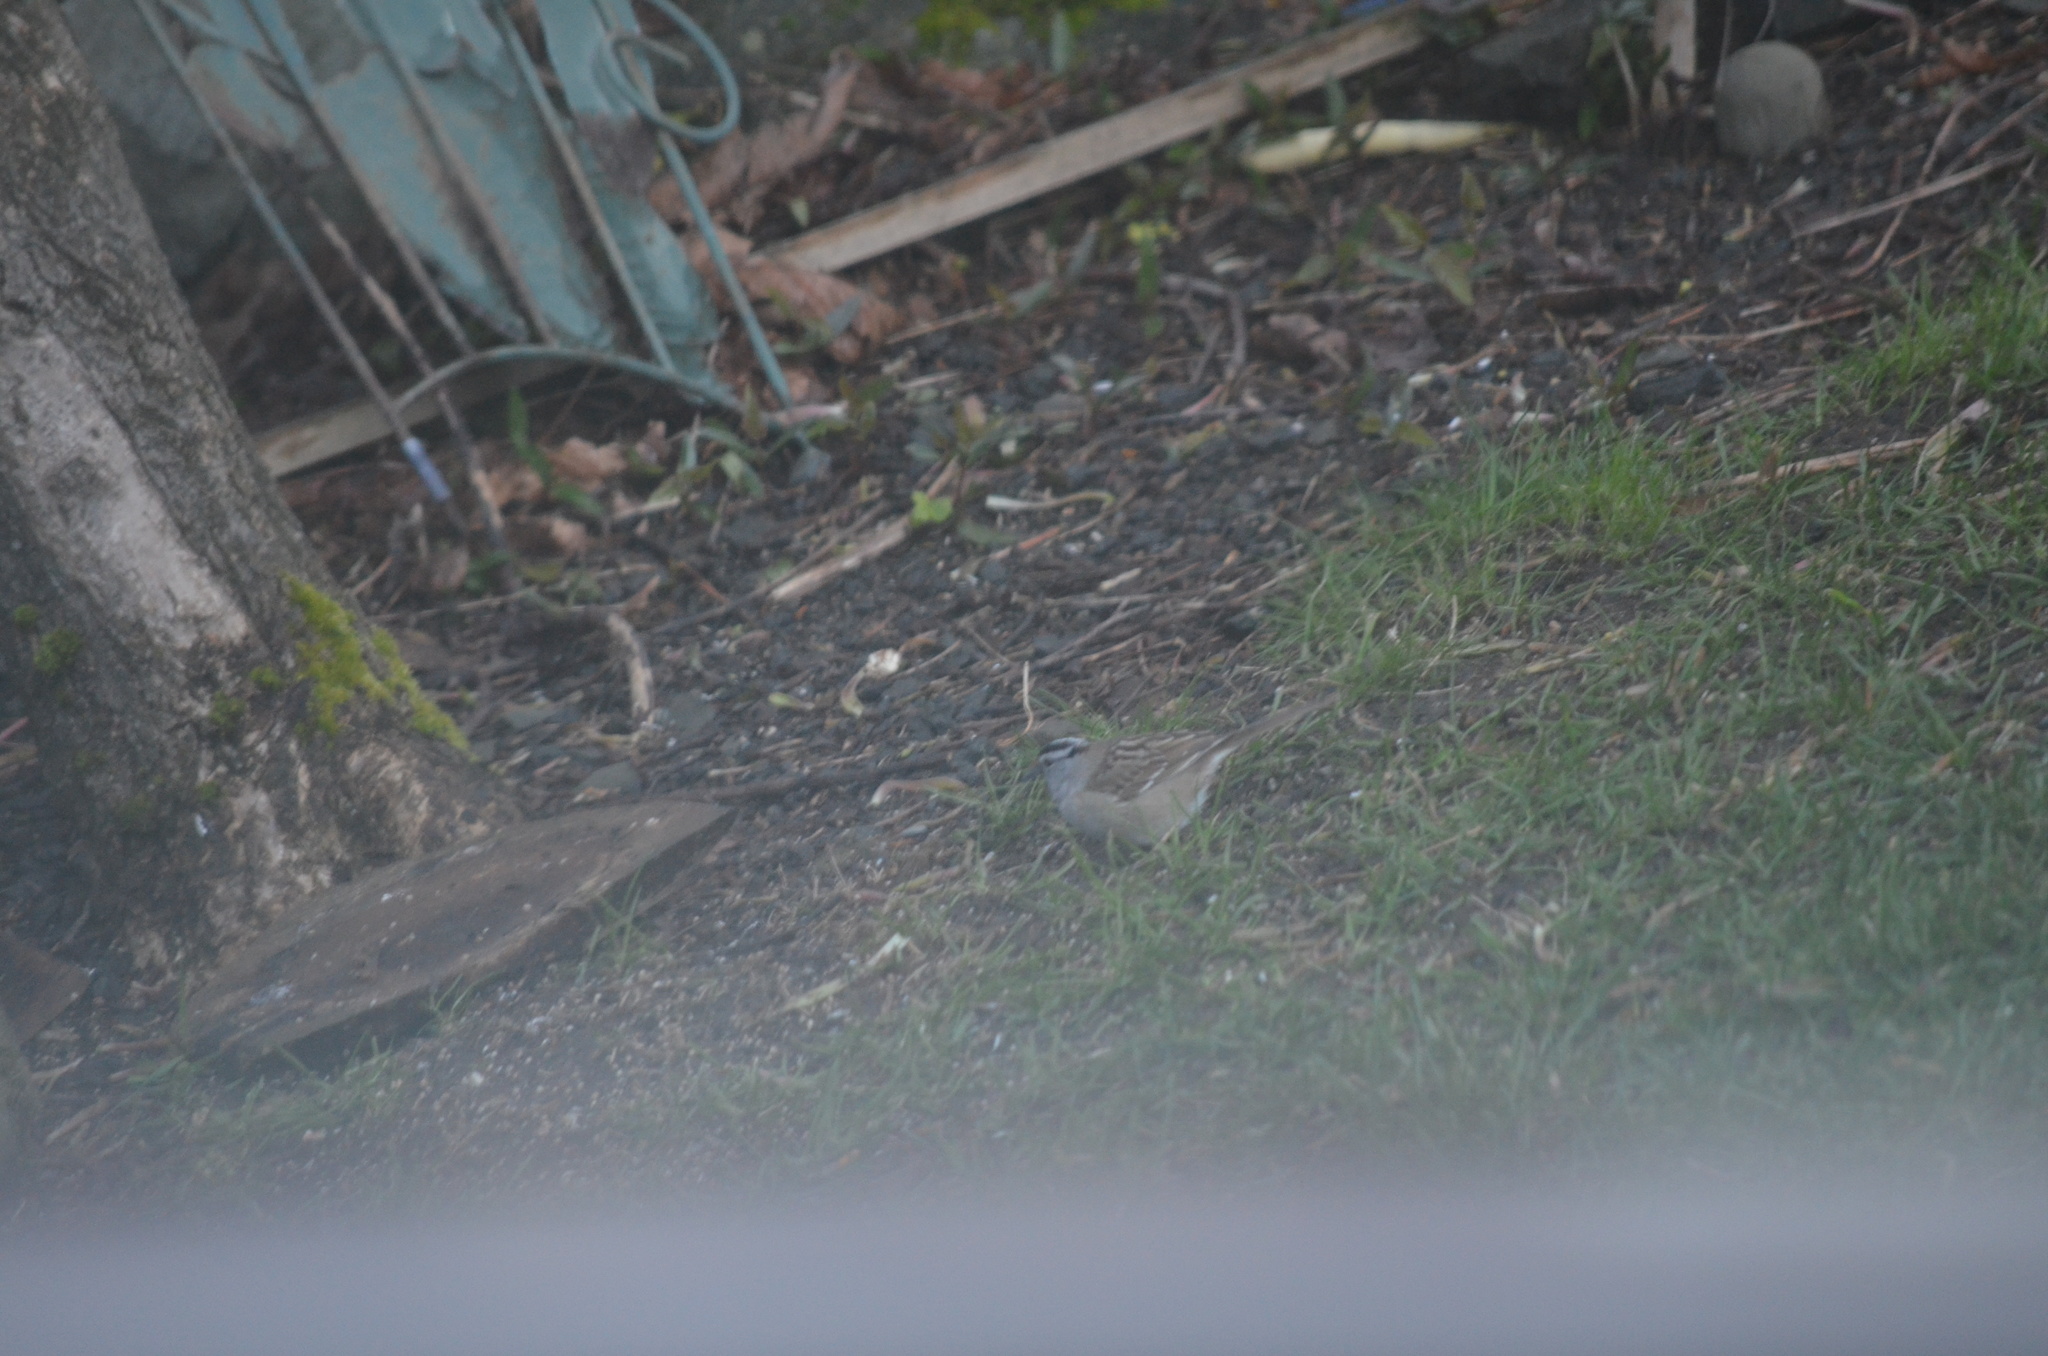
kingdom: Animalia
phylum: Chordata
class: Aves
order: Passeriformes
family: Passerellidae
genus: Zonotrichia
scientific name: Zonotrichia leucophrys
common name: White-crowned sparrow
